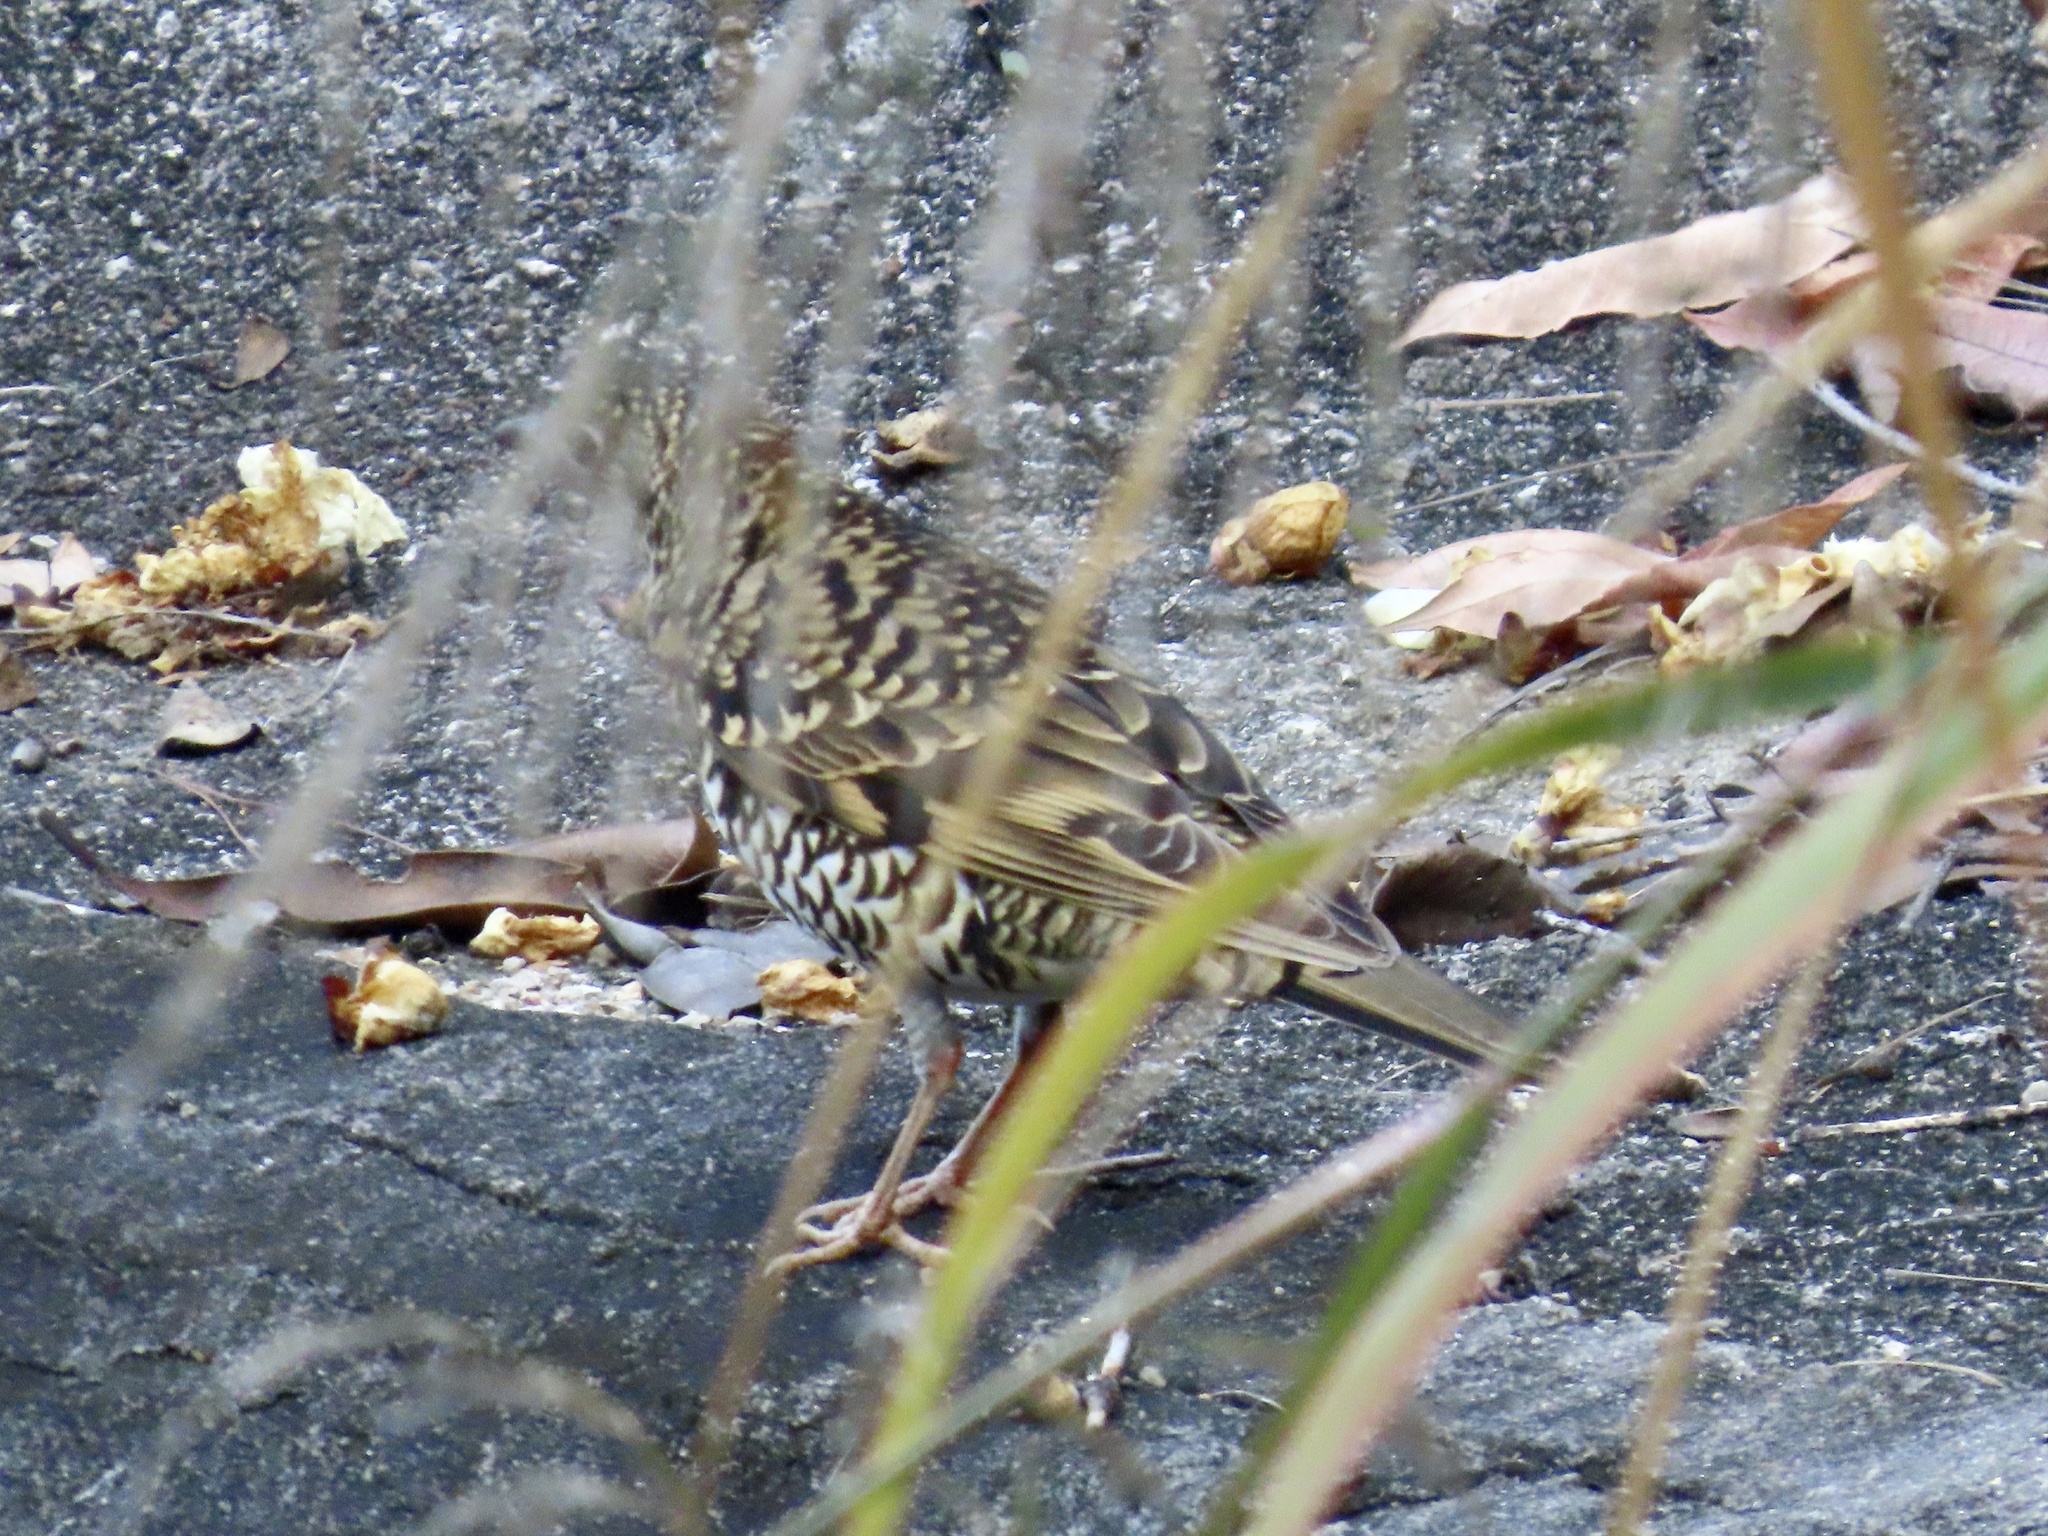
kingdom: Animalia
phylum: Chordata
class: Aves
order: Passeriformes
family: Turdidae
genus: Zoothera
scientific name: Zoothera aurea
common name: White's thrush
